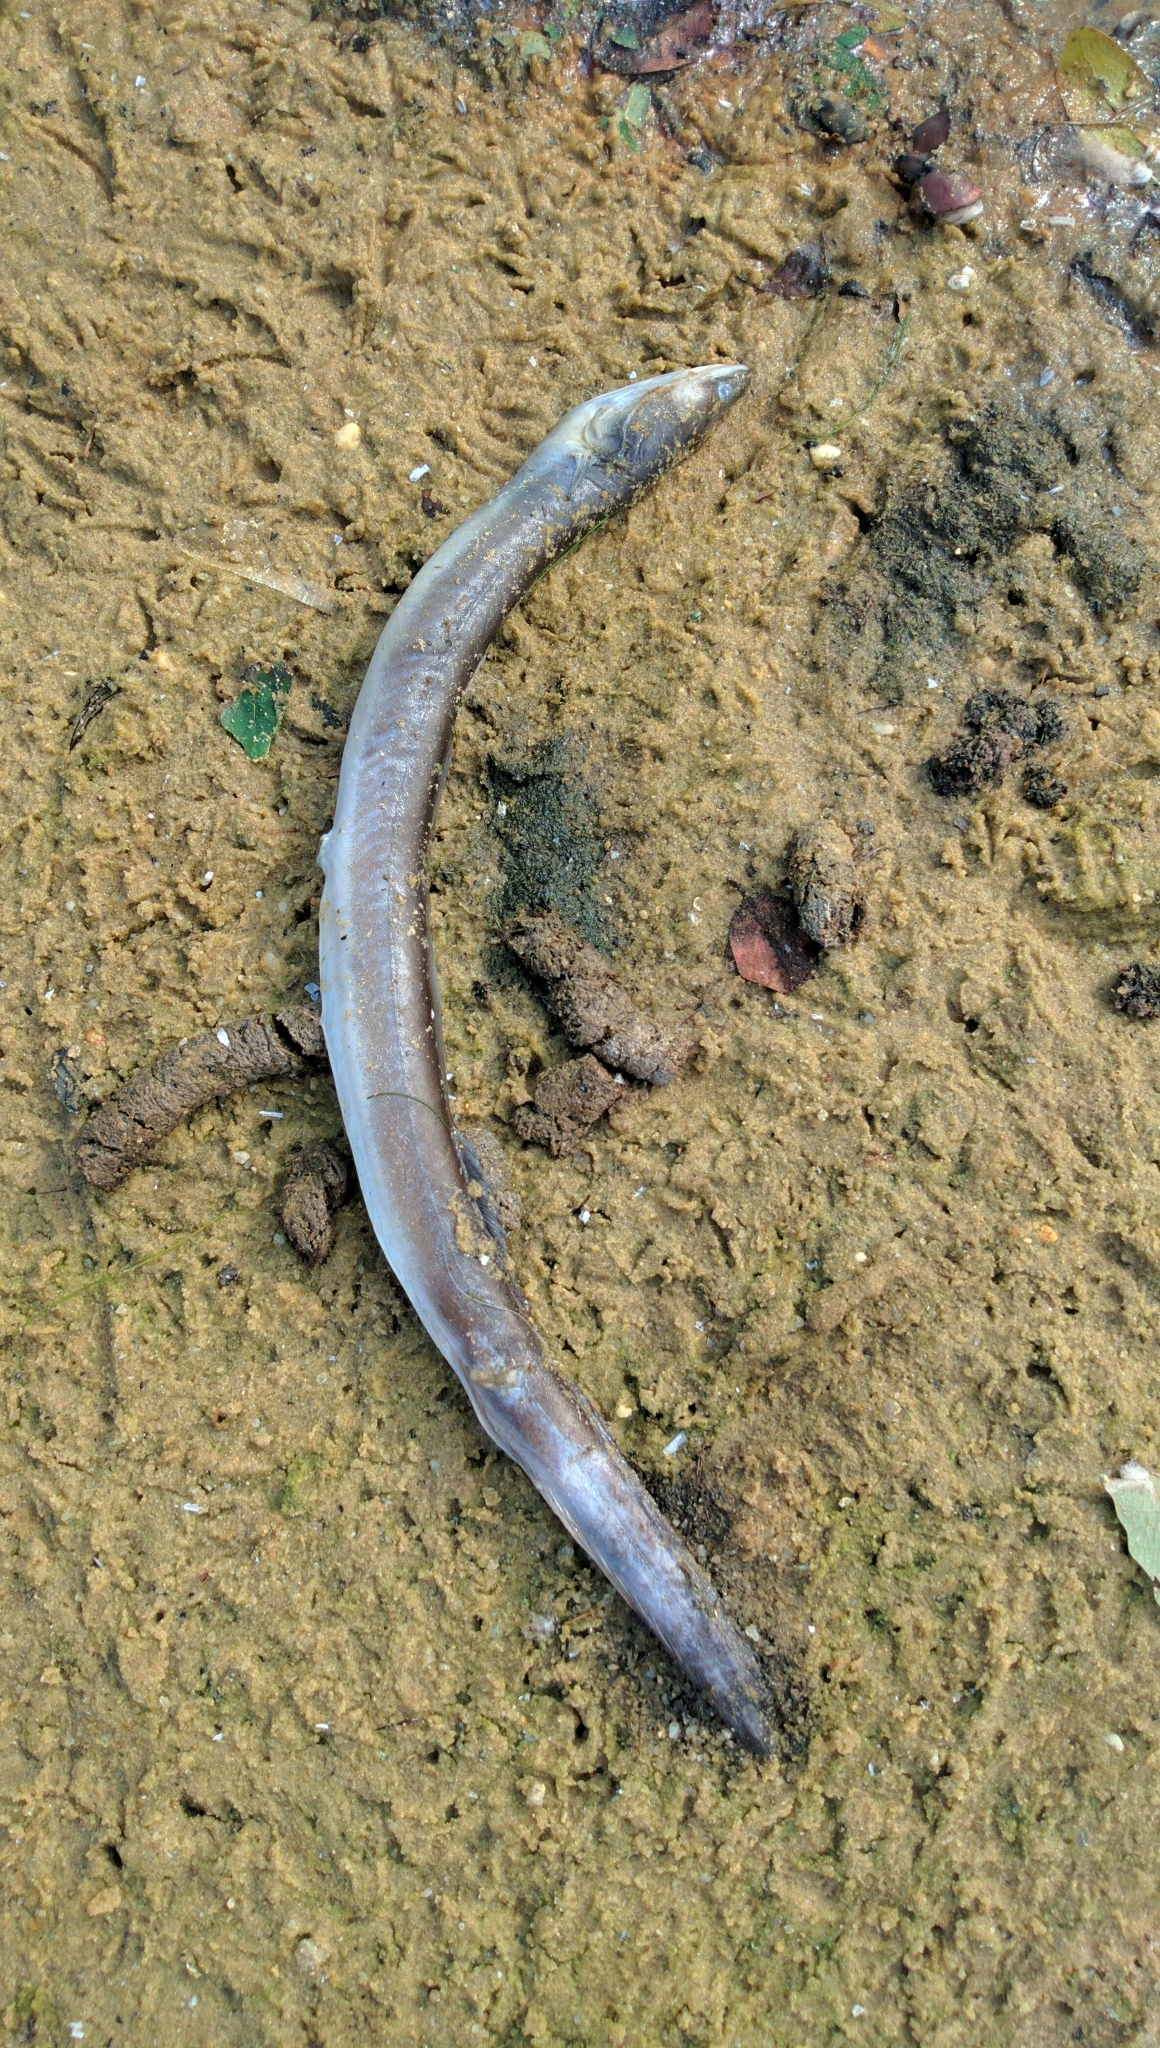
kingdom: Animalia
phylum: Chordata
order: Anguilliformes
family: Anguillidae
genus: Anguilla
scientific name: Anguilla rostrata
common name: American eel
